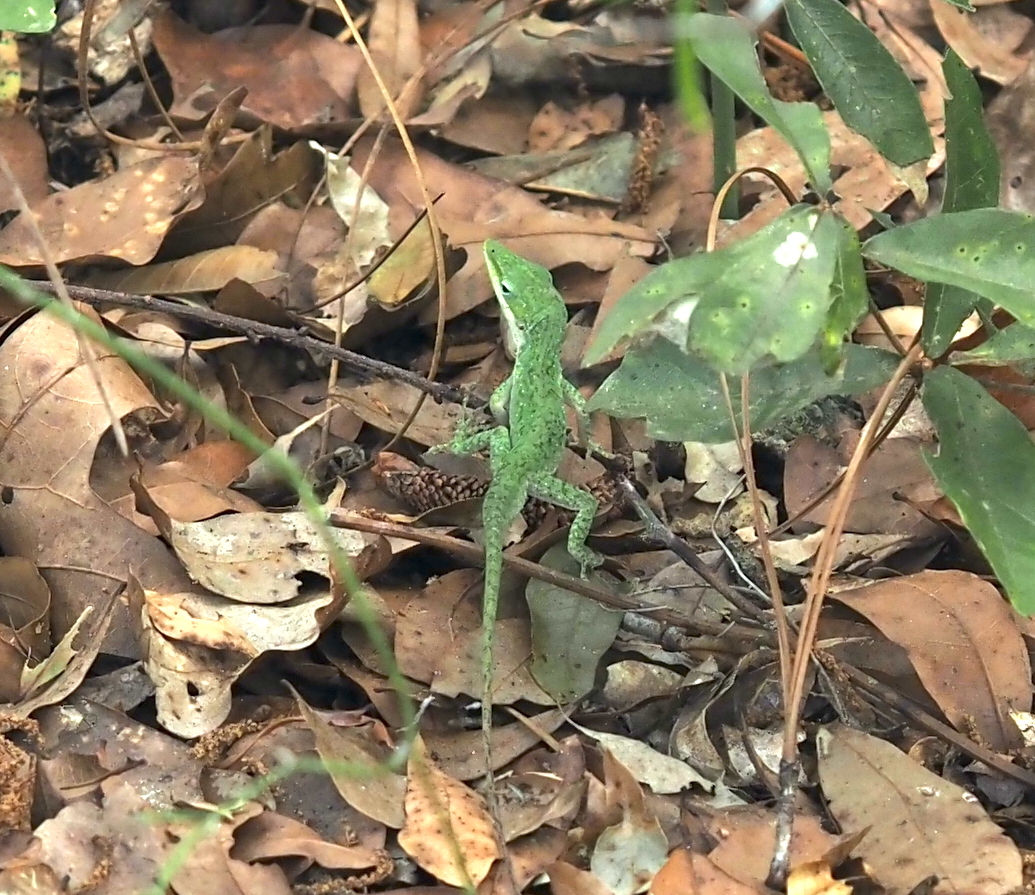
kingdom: Animalia
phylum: Chordata
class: Squamata
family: Dactyloidae
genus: Anolis
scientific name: Anolis carolinensis
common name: Green anole
